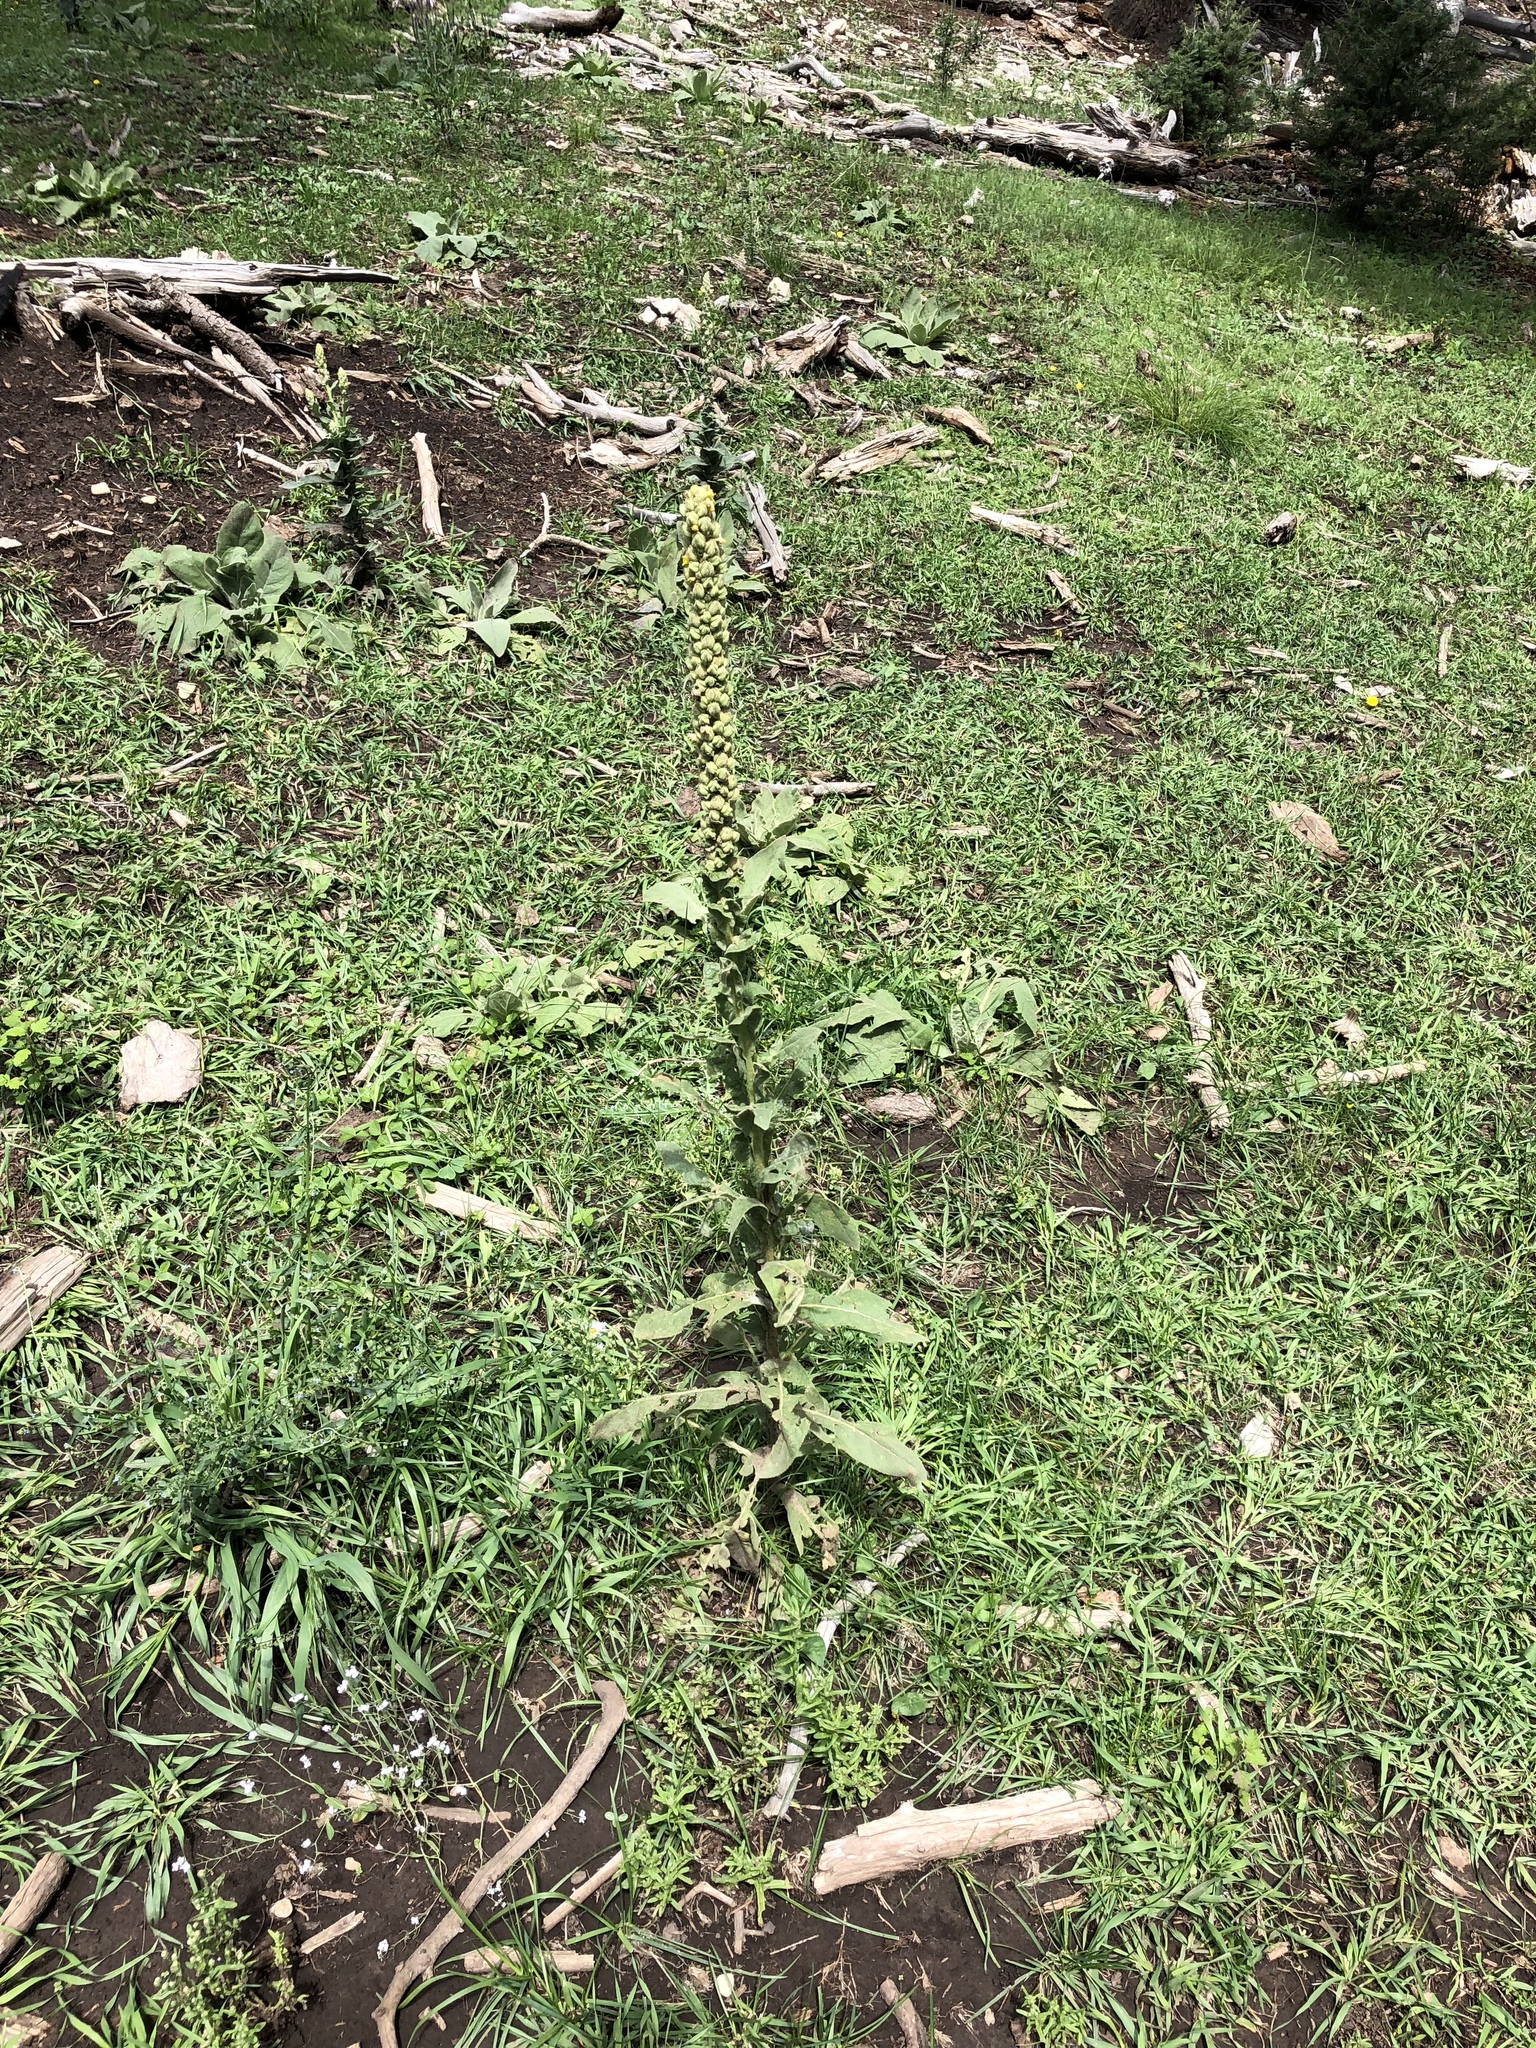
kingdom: Plantae
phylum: Tracheophyta
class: Magnoliopsida
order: Lamiales
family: Scrophulariaceae
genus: Verbascum
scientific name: Verbascum thapsus
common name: Common mullein
